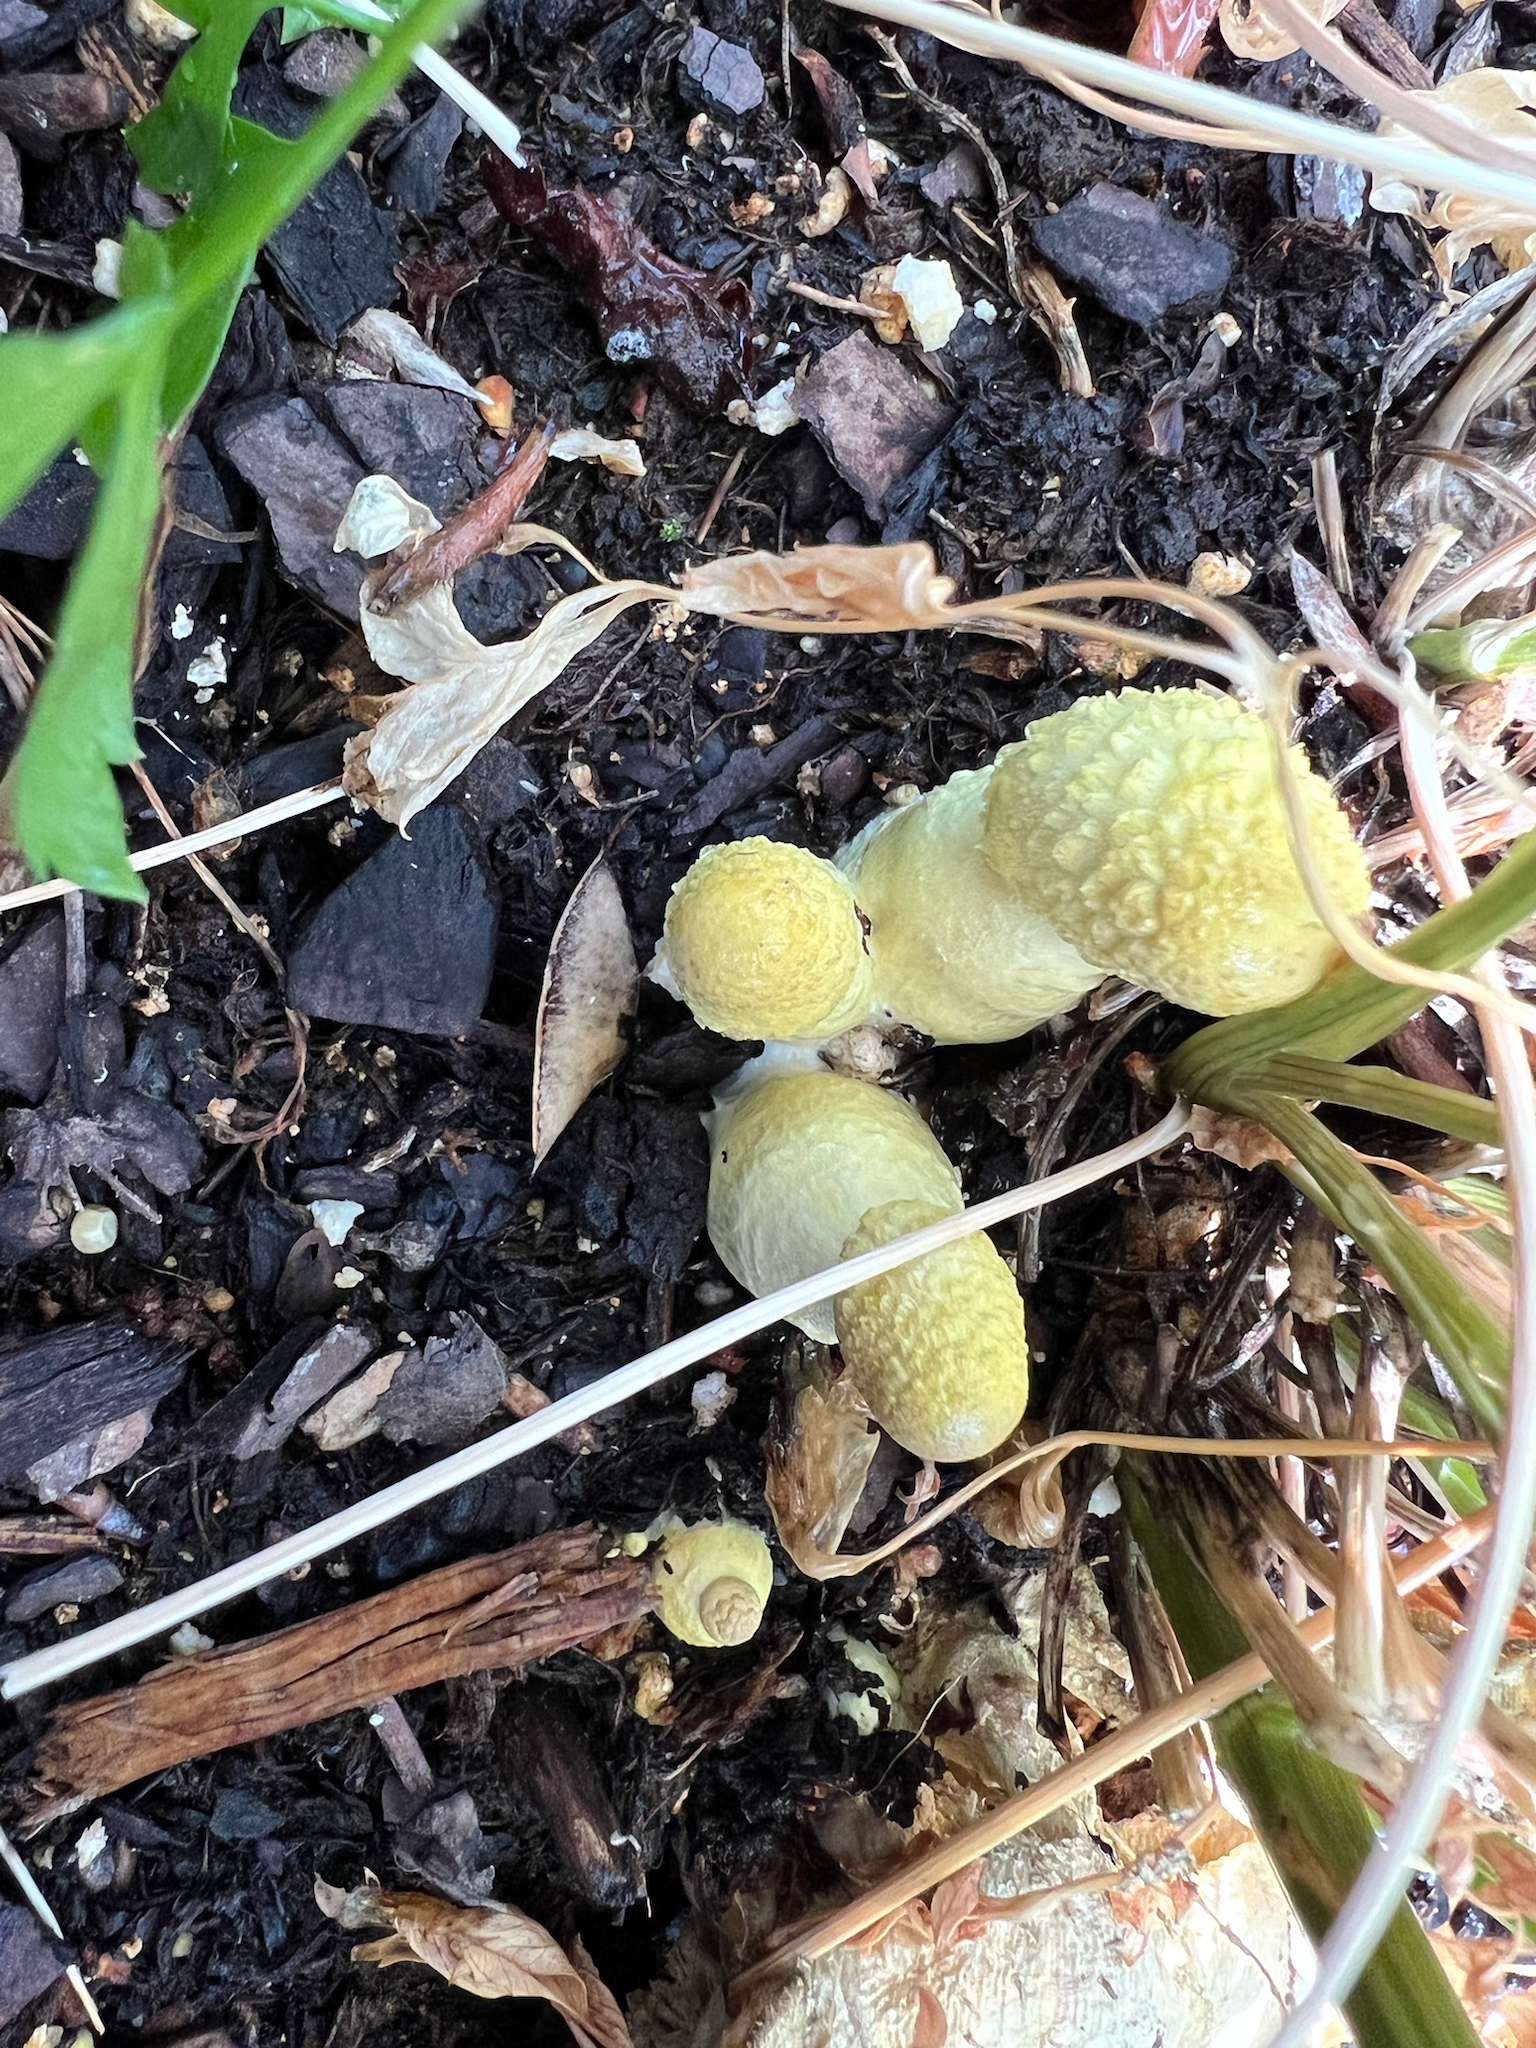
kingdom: Fungi
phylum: Basidiomycota
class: Agaricomycetes
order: Agaricales
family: Agaricaceae
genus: Leucocoprinus
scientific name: Leucocoprinus birnbaumii
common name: Plantpot dapperling
